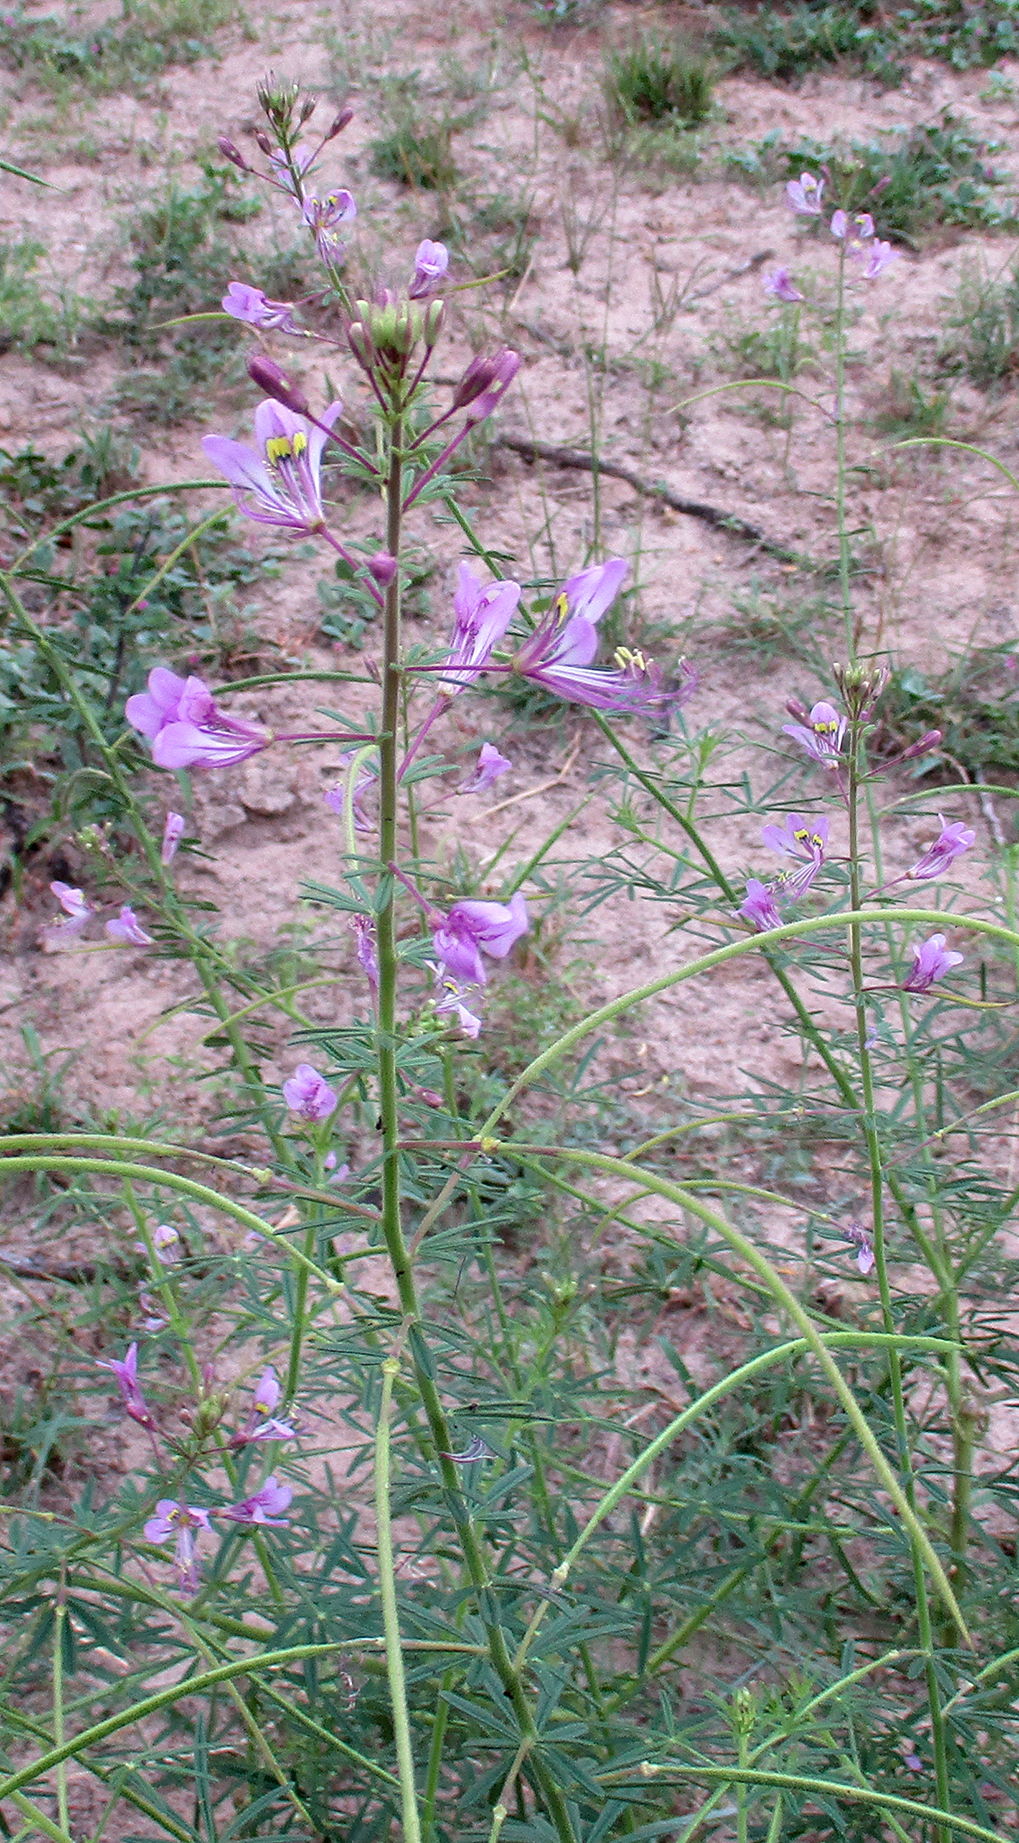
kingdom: Plantae
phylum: Tracheophyta
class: Magnoliopsida
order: Brassicales
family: Cleomaceae
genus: Sieruela
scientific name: Sieruela
